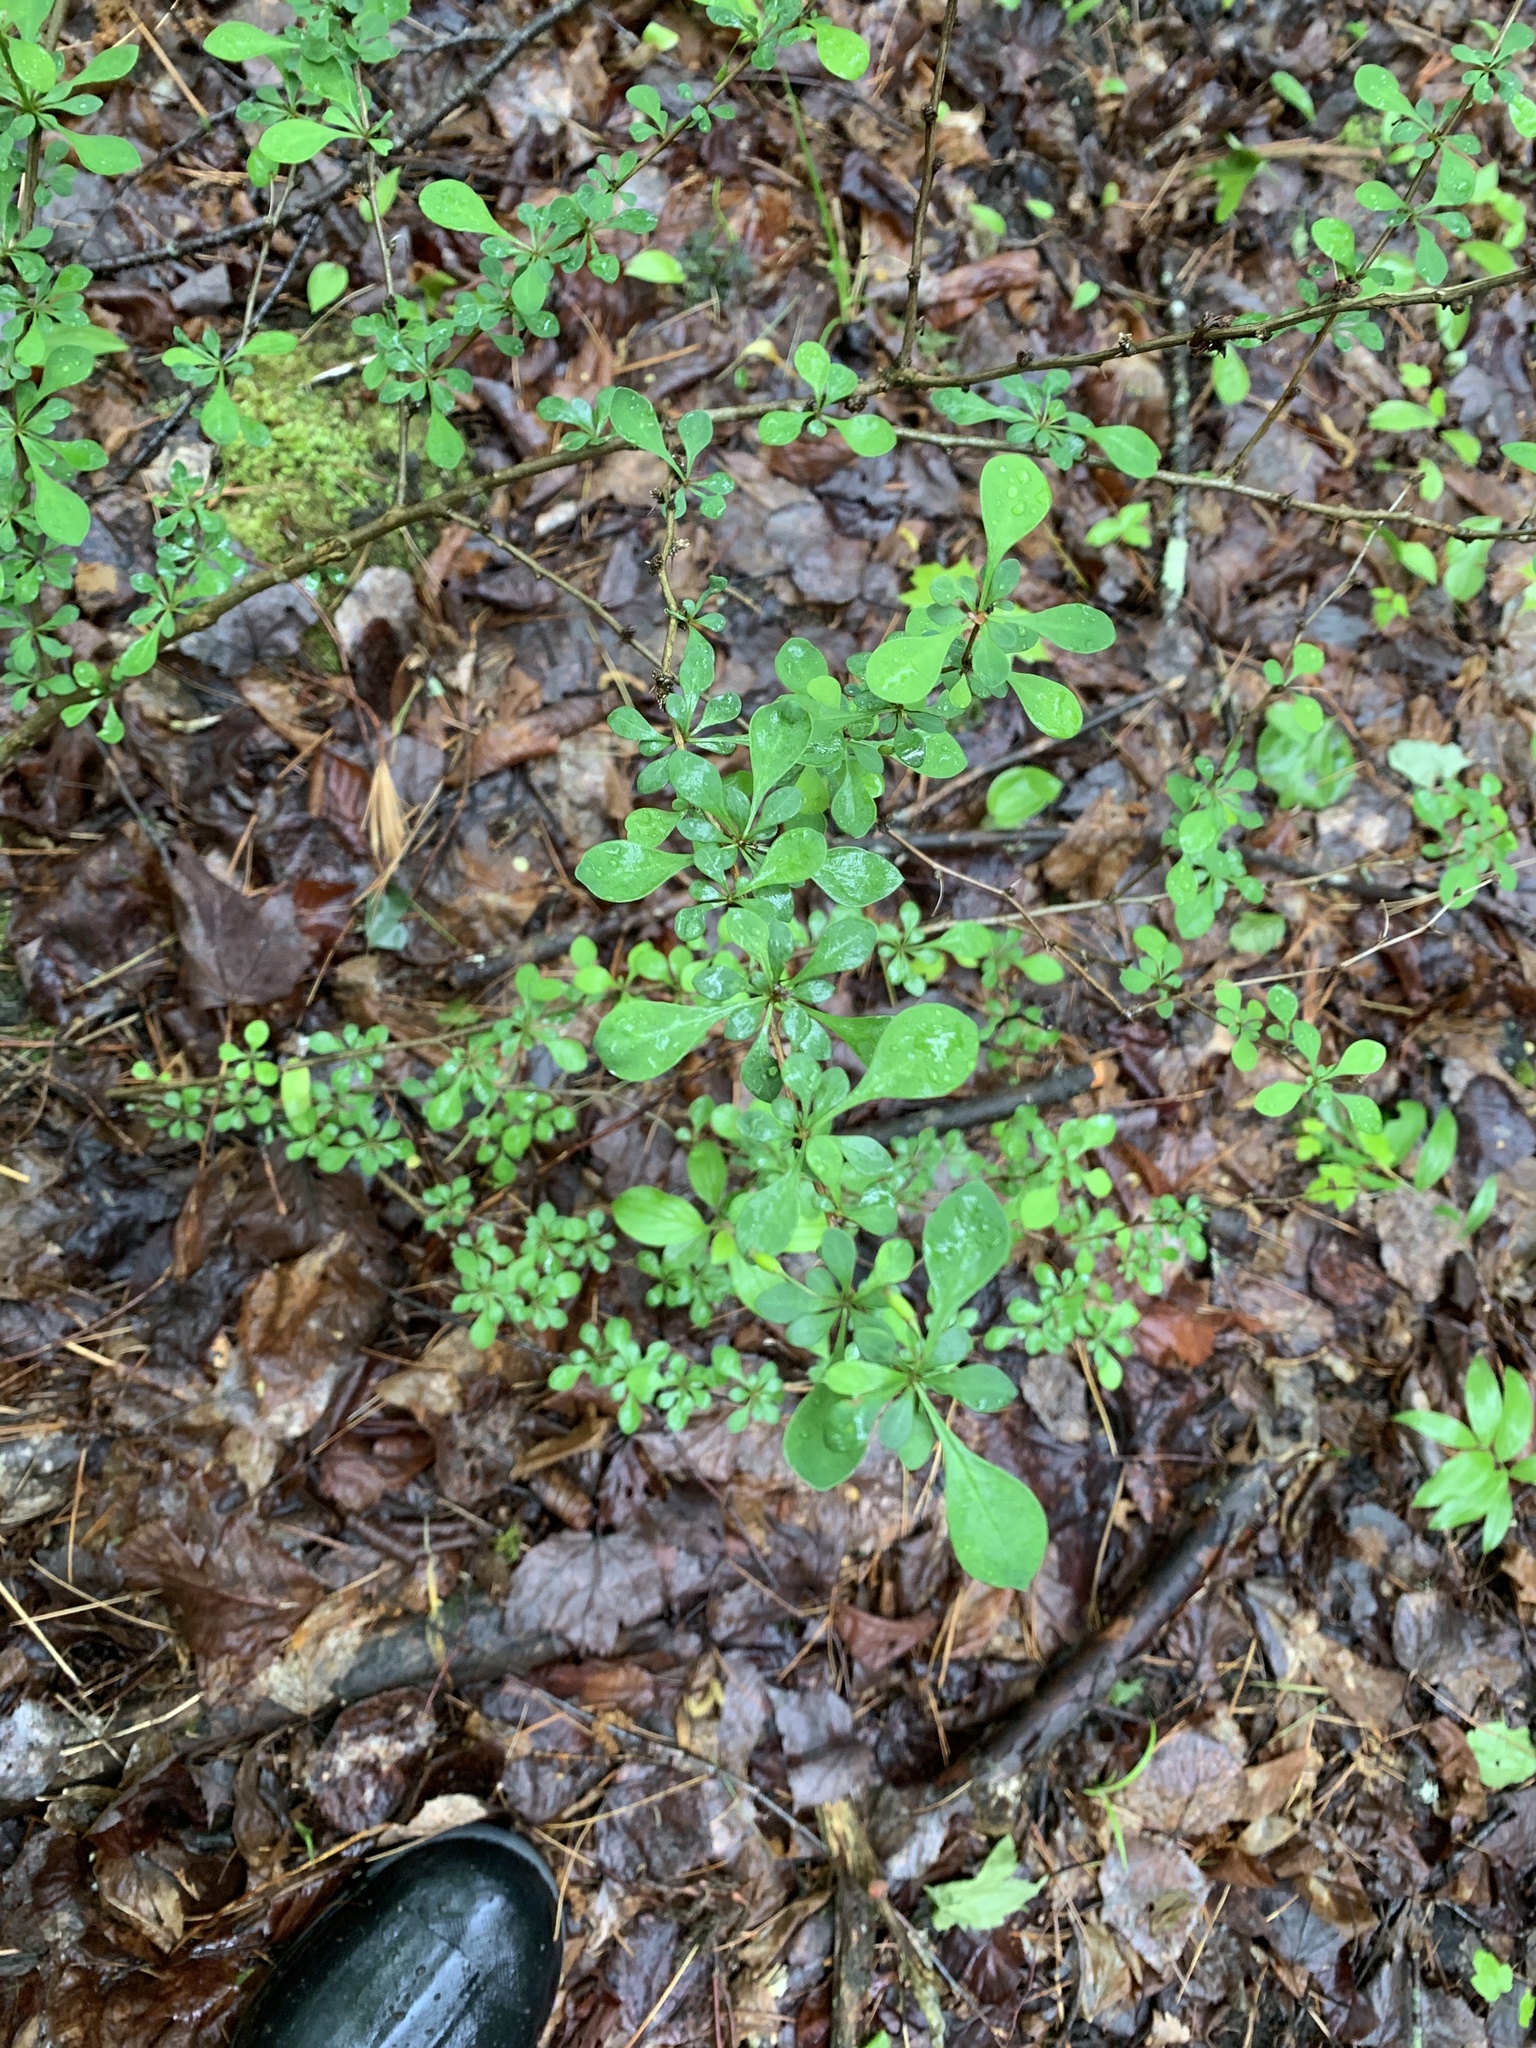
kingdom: Plantae
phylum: Tracheophyta
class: Magnoliopsida
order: Ranunculales
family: Berberidaceae
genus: Berberis
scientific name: Berberis thunbergii
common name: Japanese barberry
